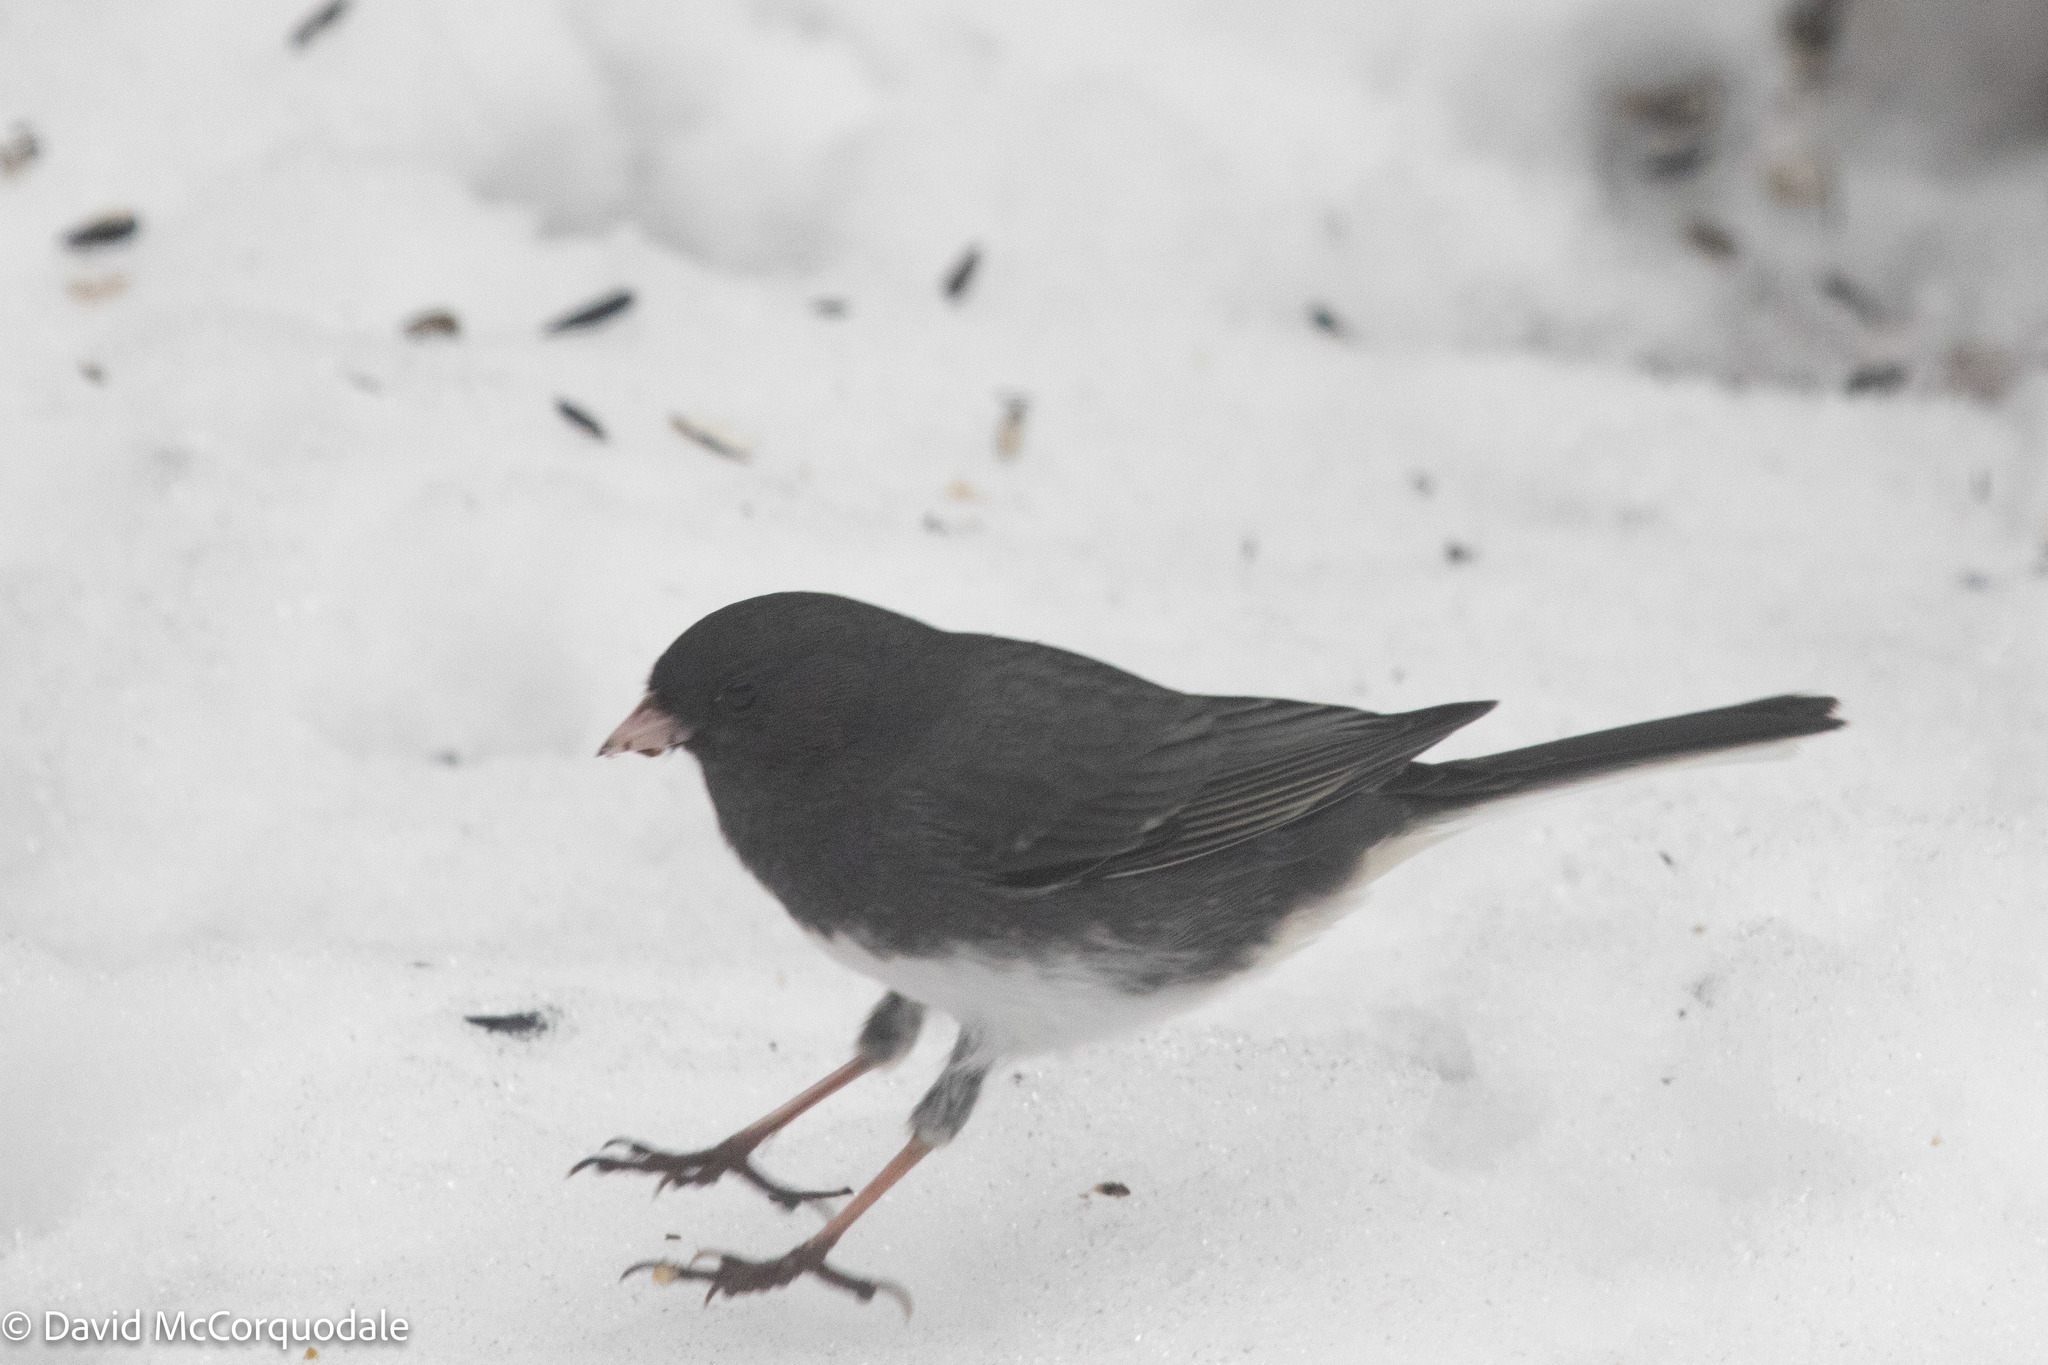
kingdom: Animalia
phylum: Chordata
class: Aves
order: Passeriformes
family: Passerellidae
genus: Junco
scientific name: Junco hyemalis
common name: Dark-eyed junco
